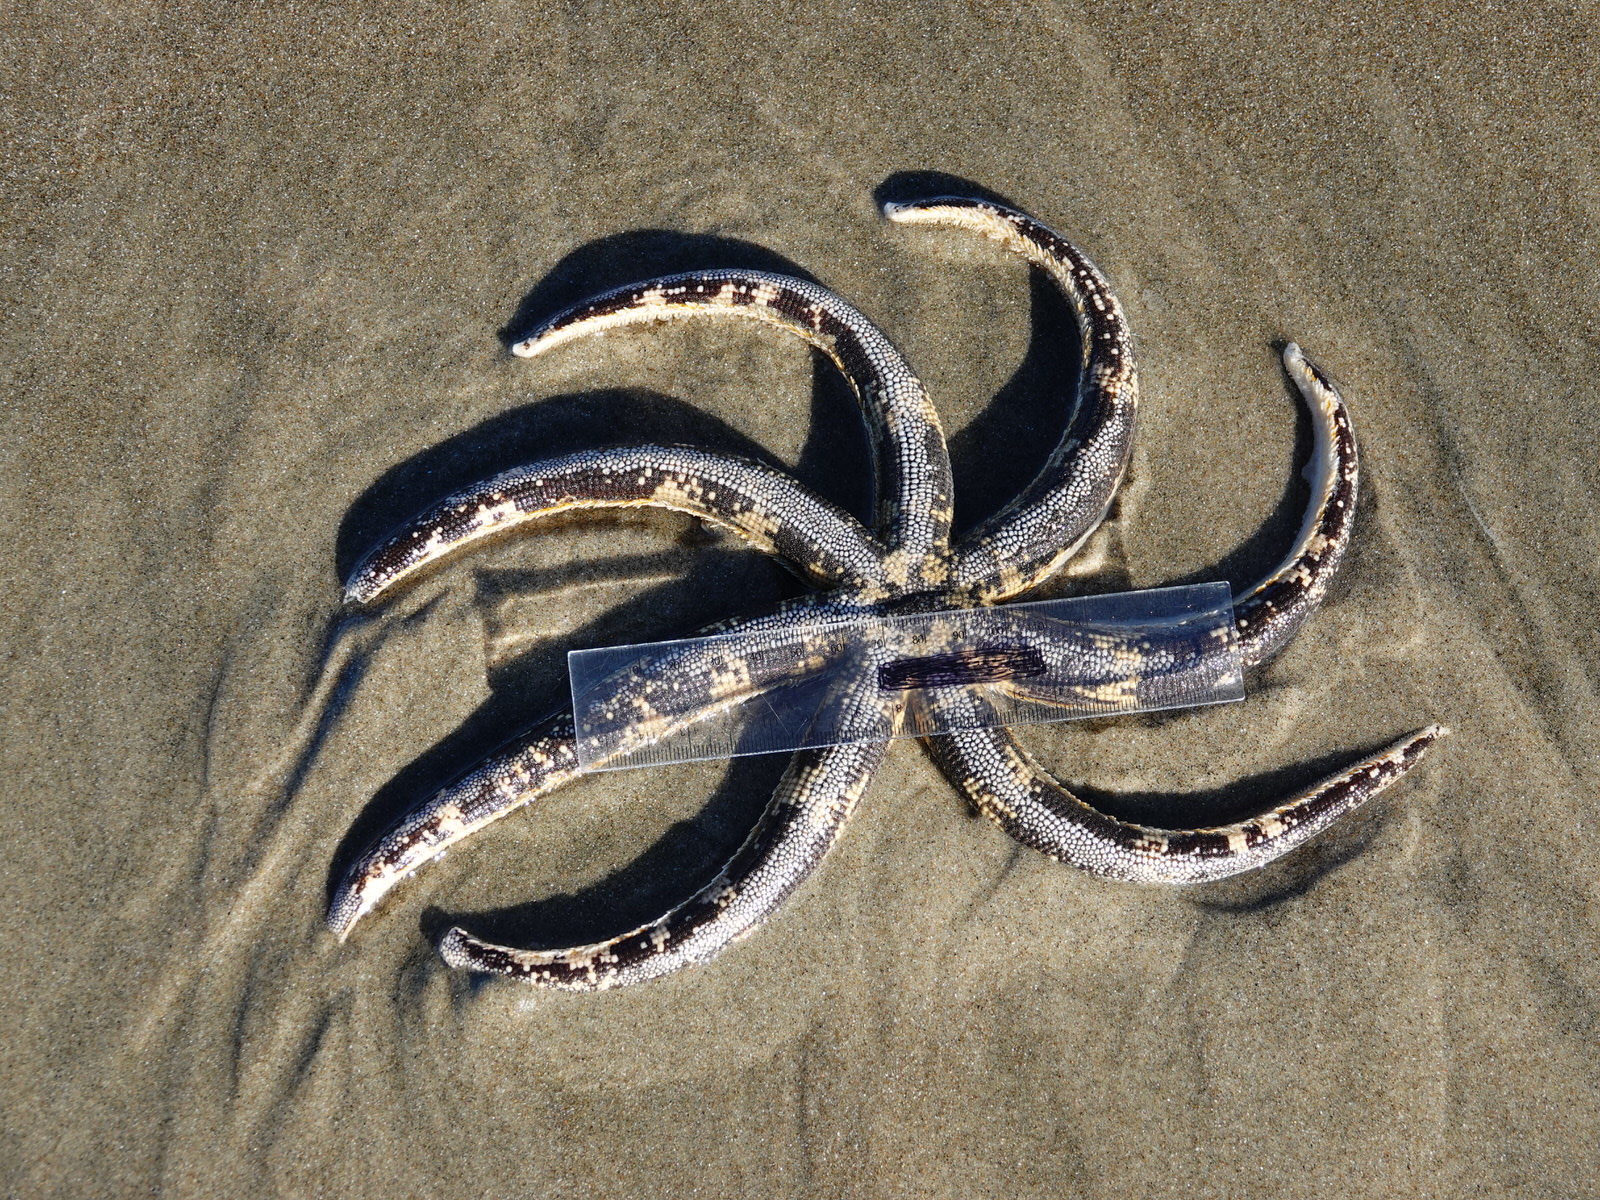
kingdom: Animalia
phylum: Echinodermata
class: Asteroidea
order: Paxillosida
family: Luidiidae
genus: Luidia
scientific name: Luidia australiae
